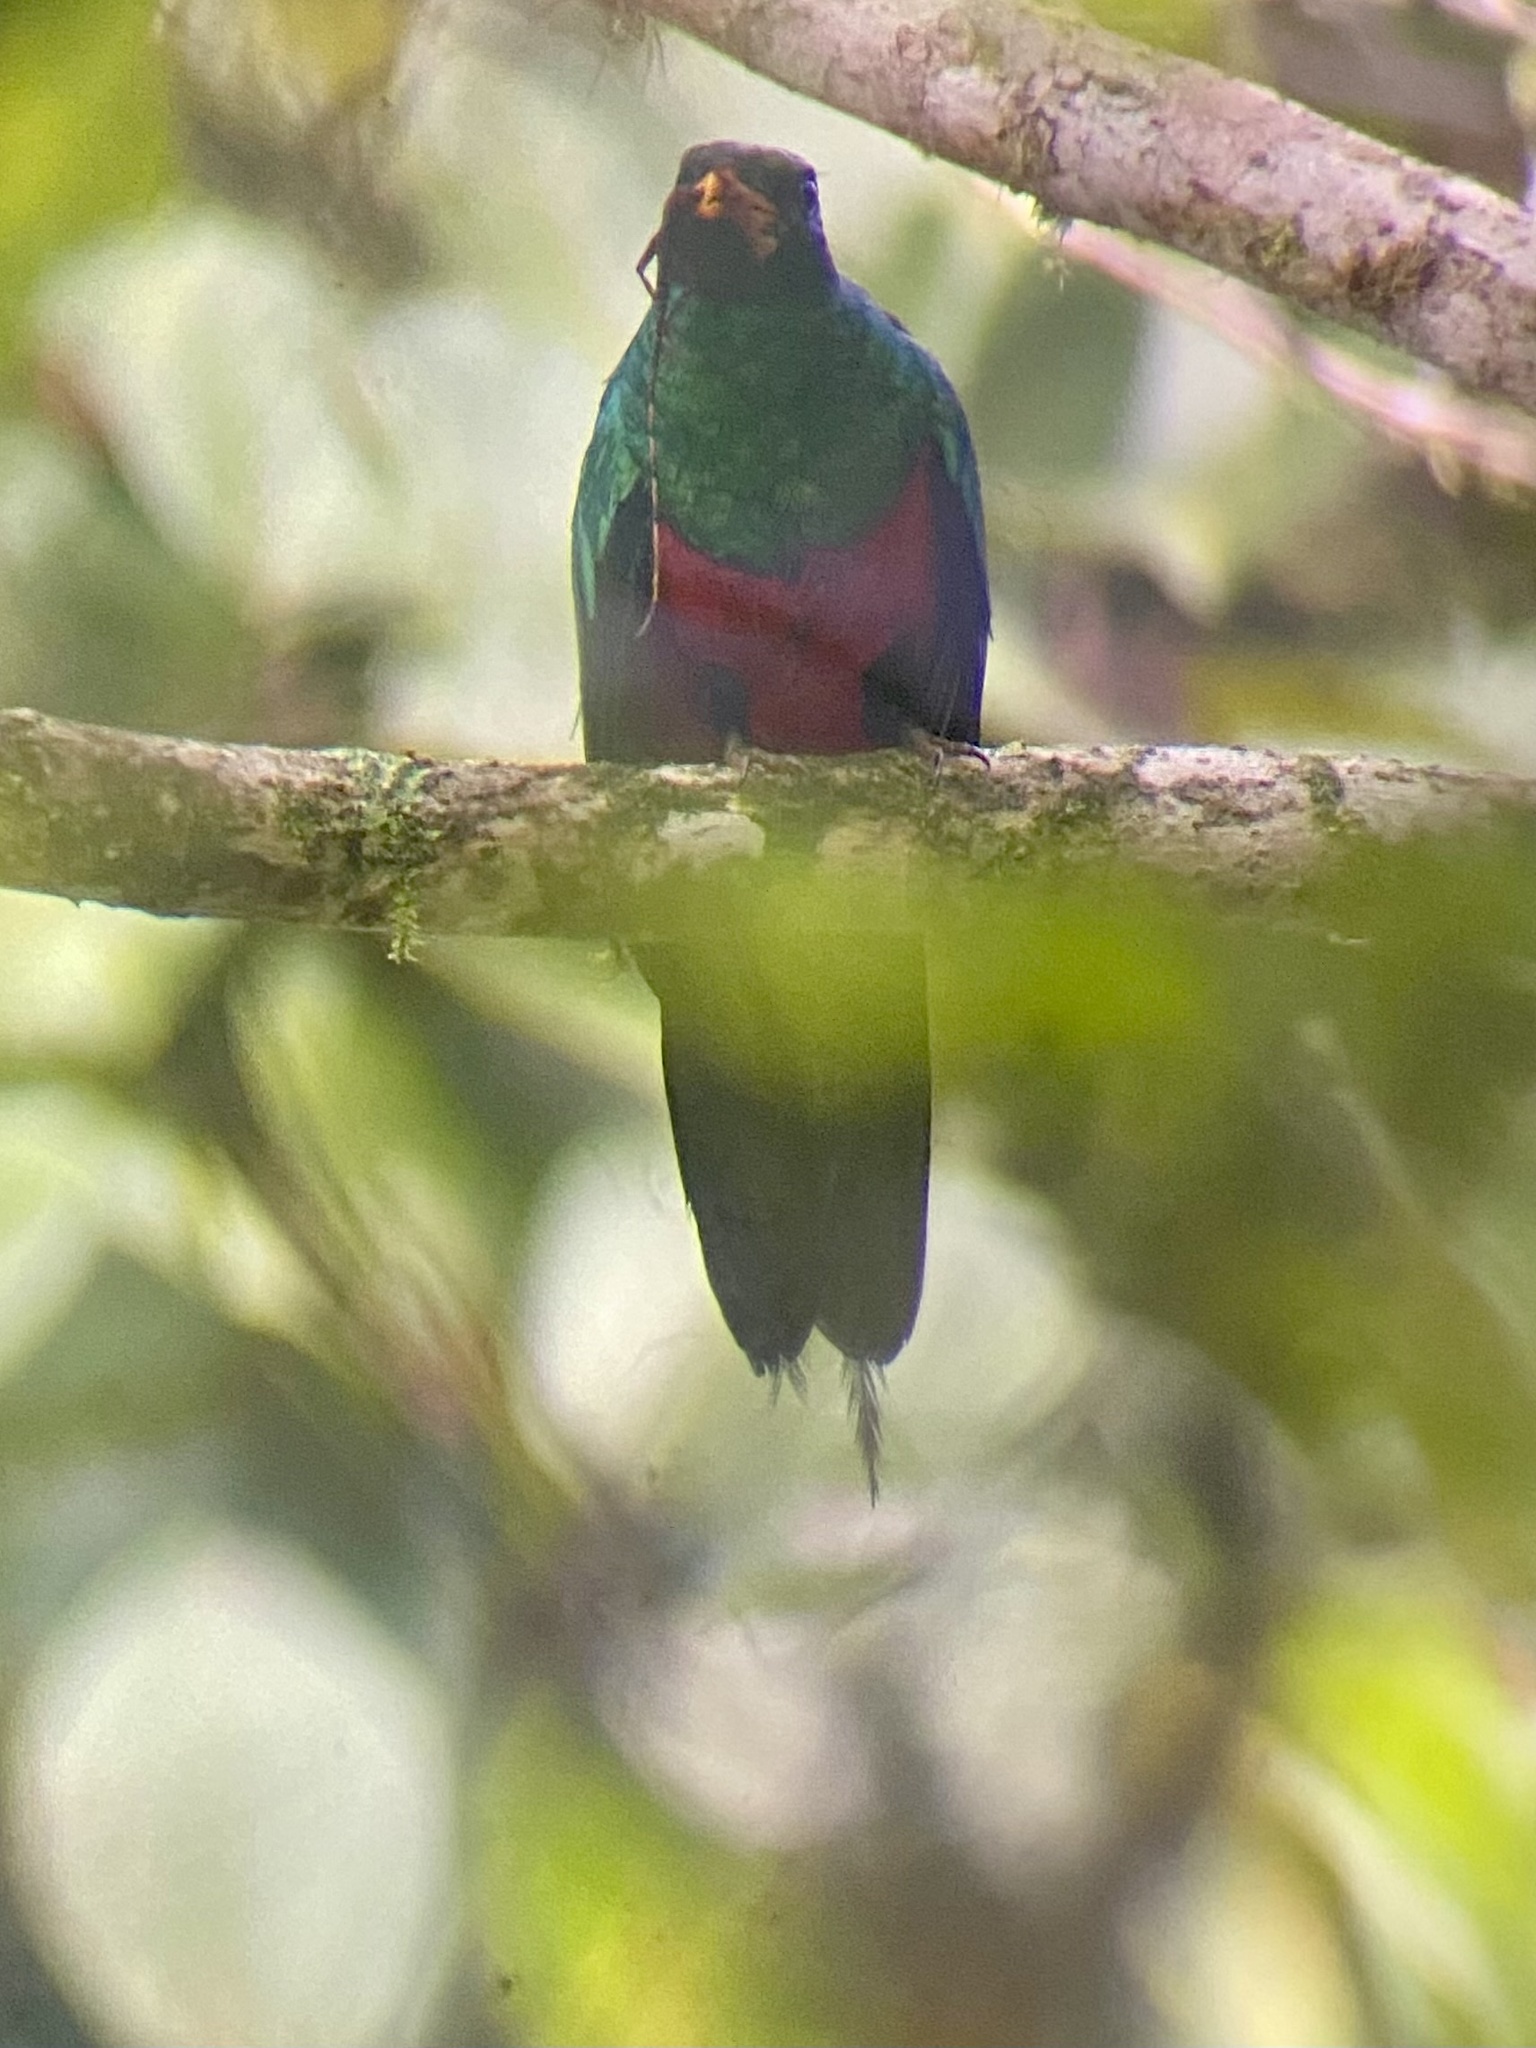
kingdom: Animalia
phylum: Chordata
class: Aves
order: Trogoniformes
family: Trogonidae
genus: Pharomachrus
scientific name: Pharomachrus auriceps
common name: Golden-headed quetzal
